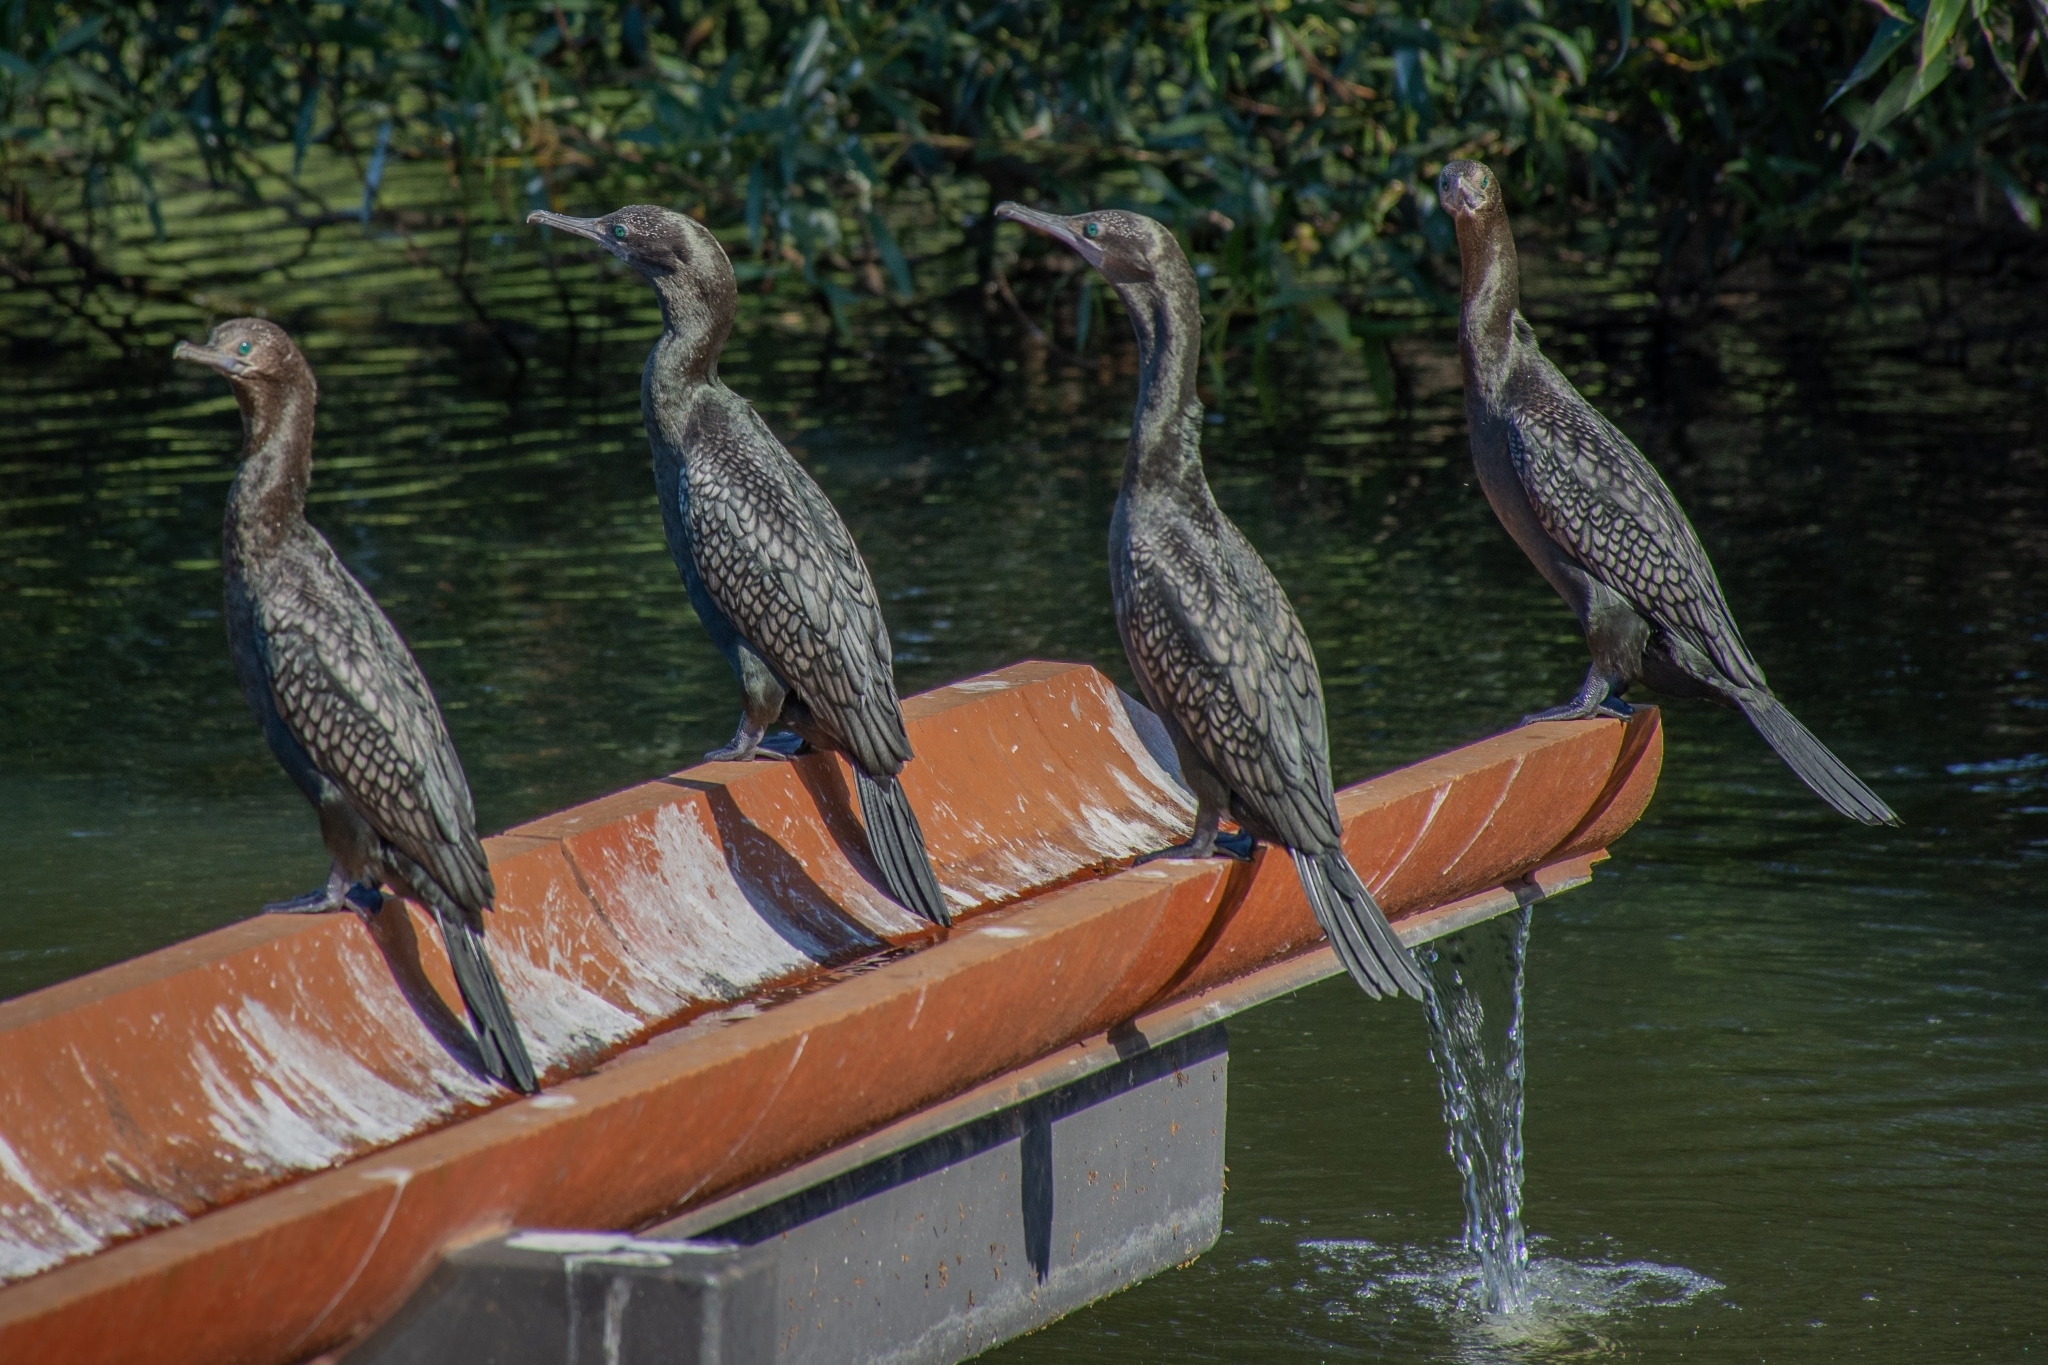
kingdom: Animalia
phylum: Chordata
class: Aves
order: Suliformes
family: Phalacrocoracidae
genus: Phalacrocorax
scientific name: Phalacrocorax sulcirostris
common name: Little black cormorant
